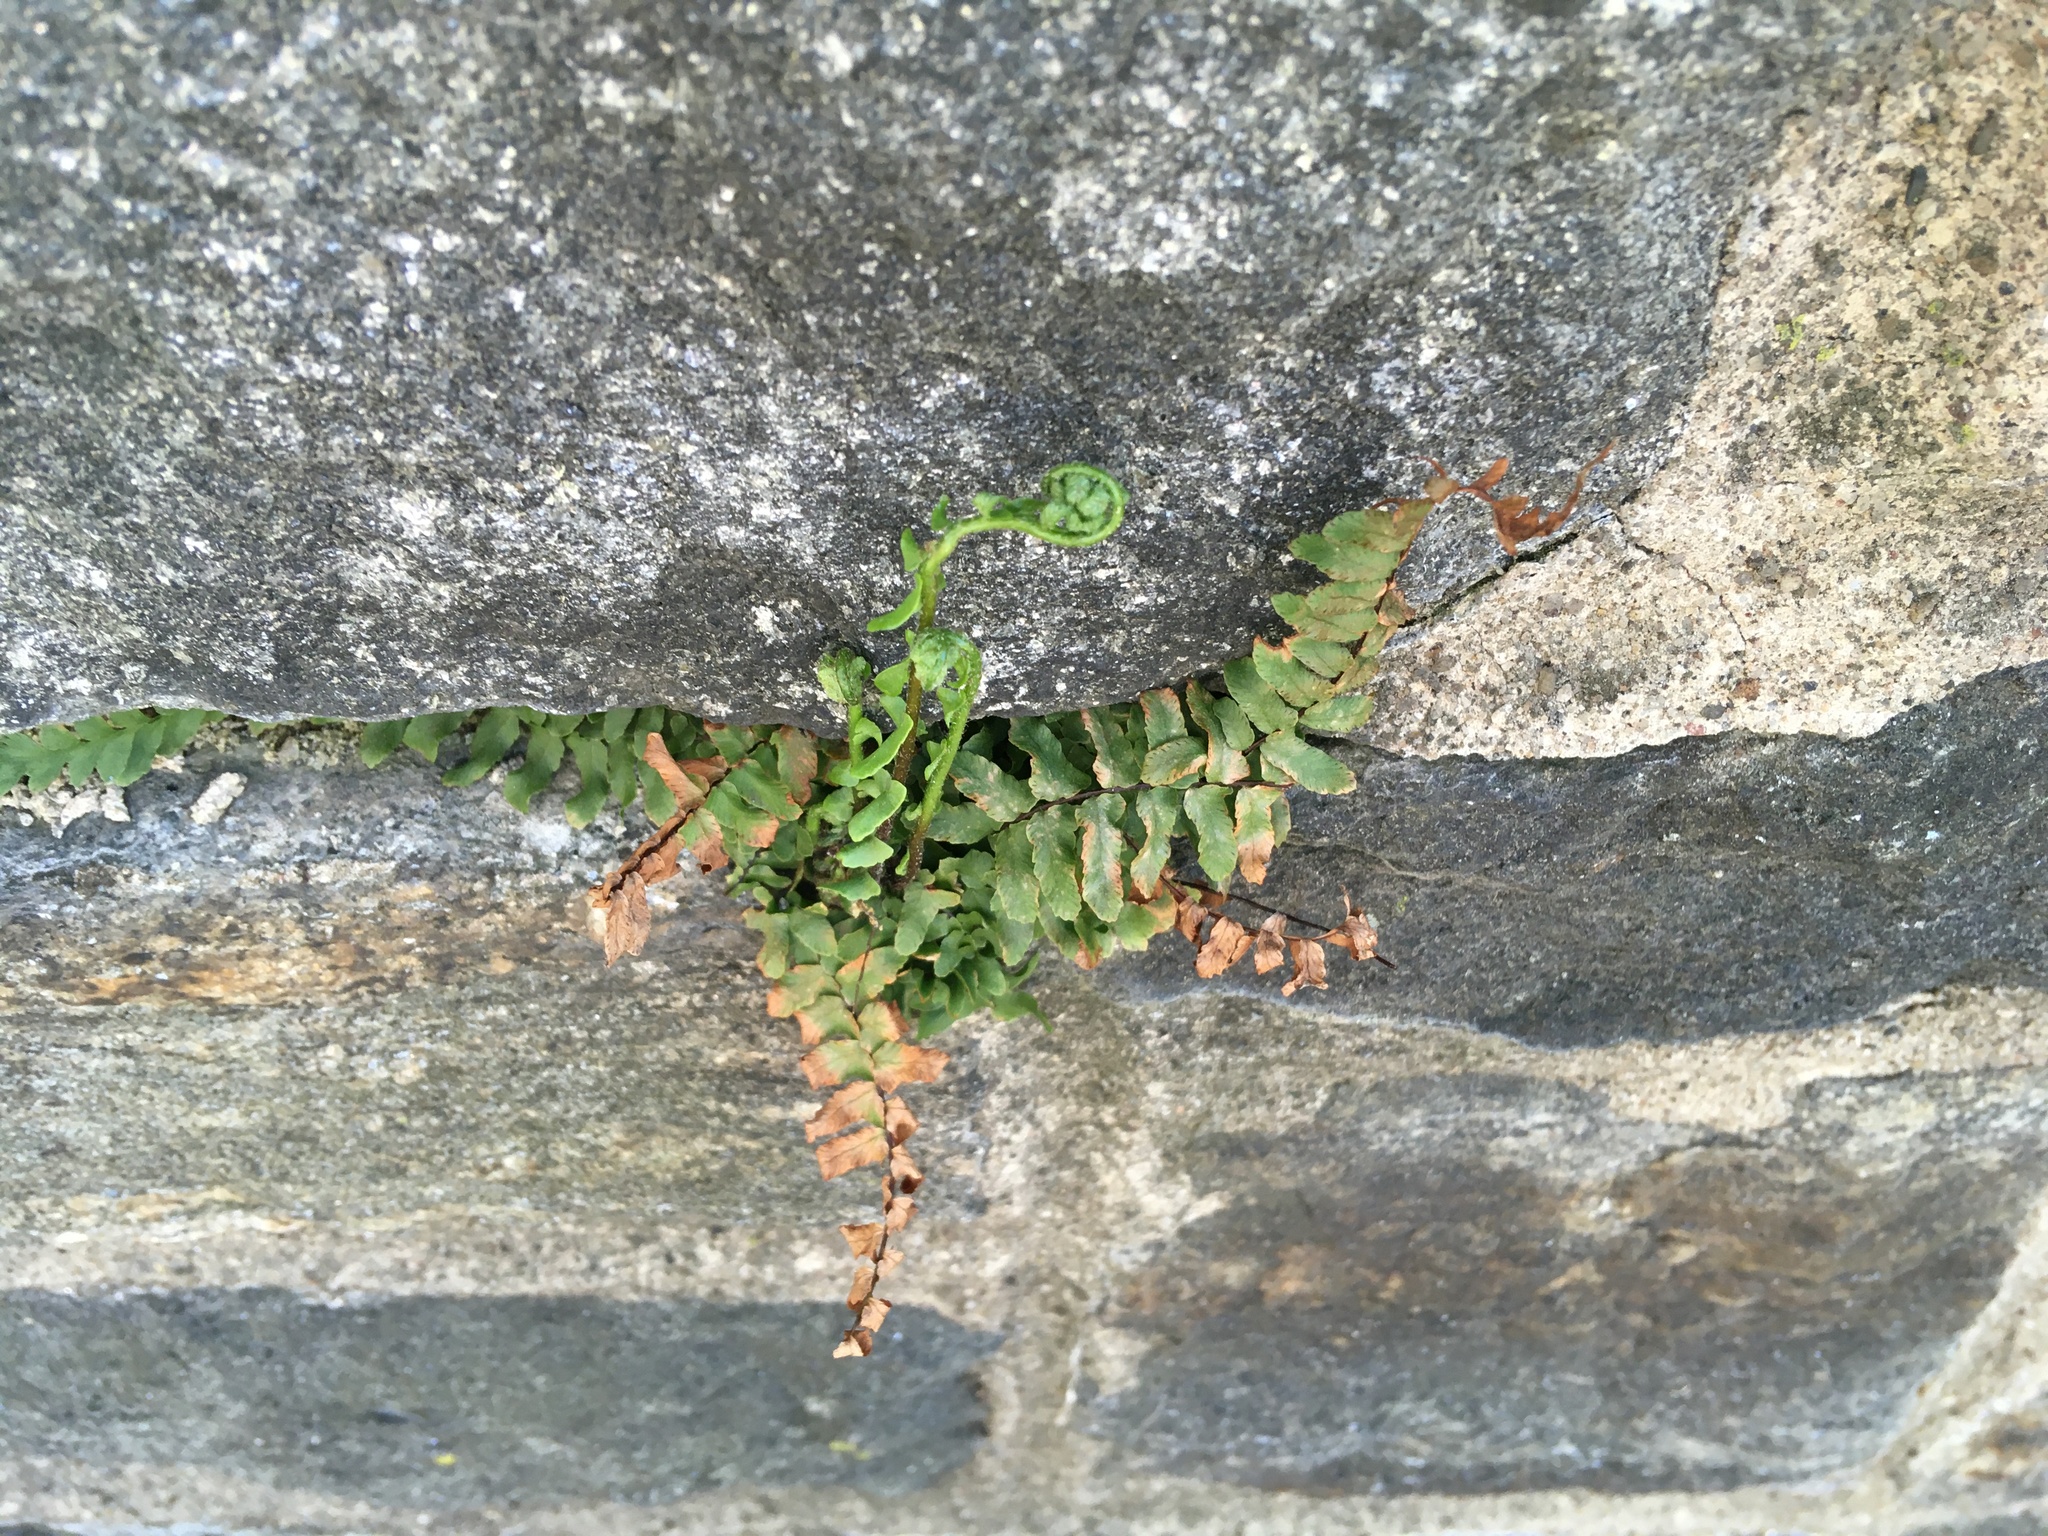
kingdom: Plantae
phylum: Tracheophyta
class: Polypodiopsida
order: Polypodiales
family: Aspleniaceae
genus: Asplenium
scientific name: Asplenium platyneuron
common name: Ebony spleenwort
